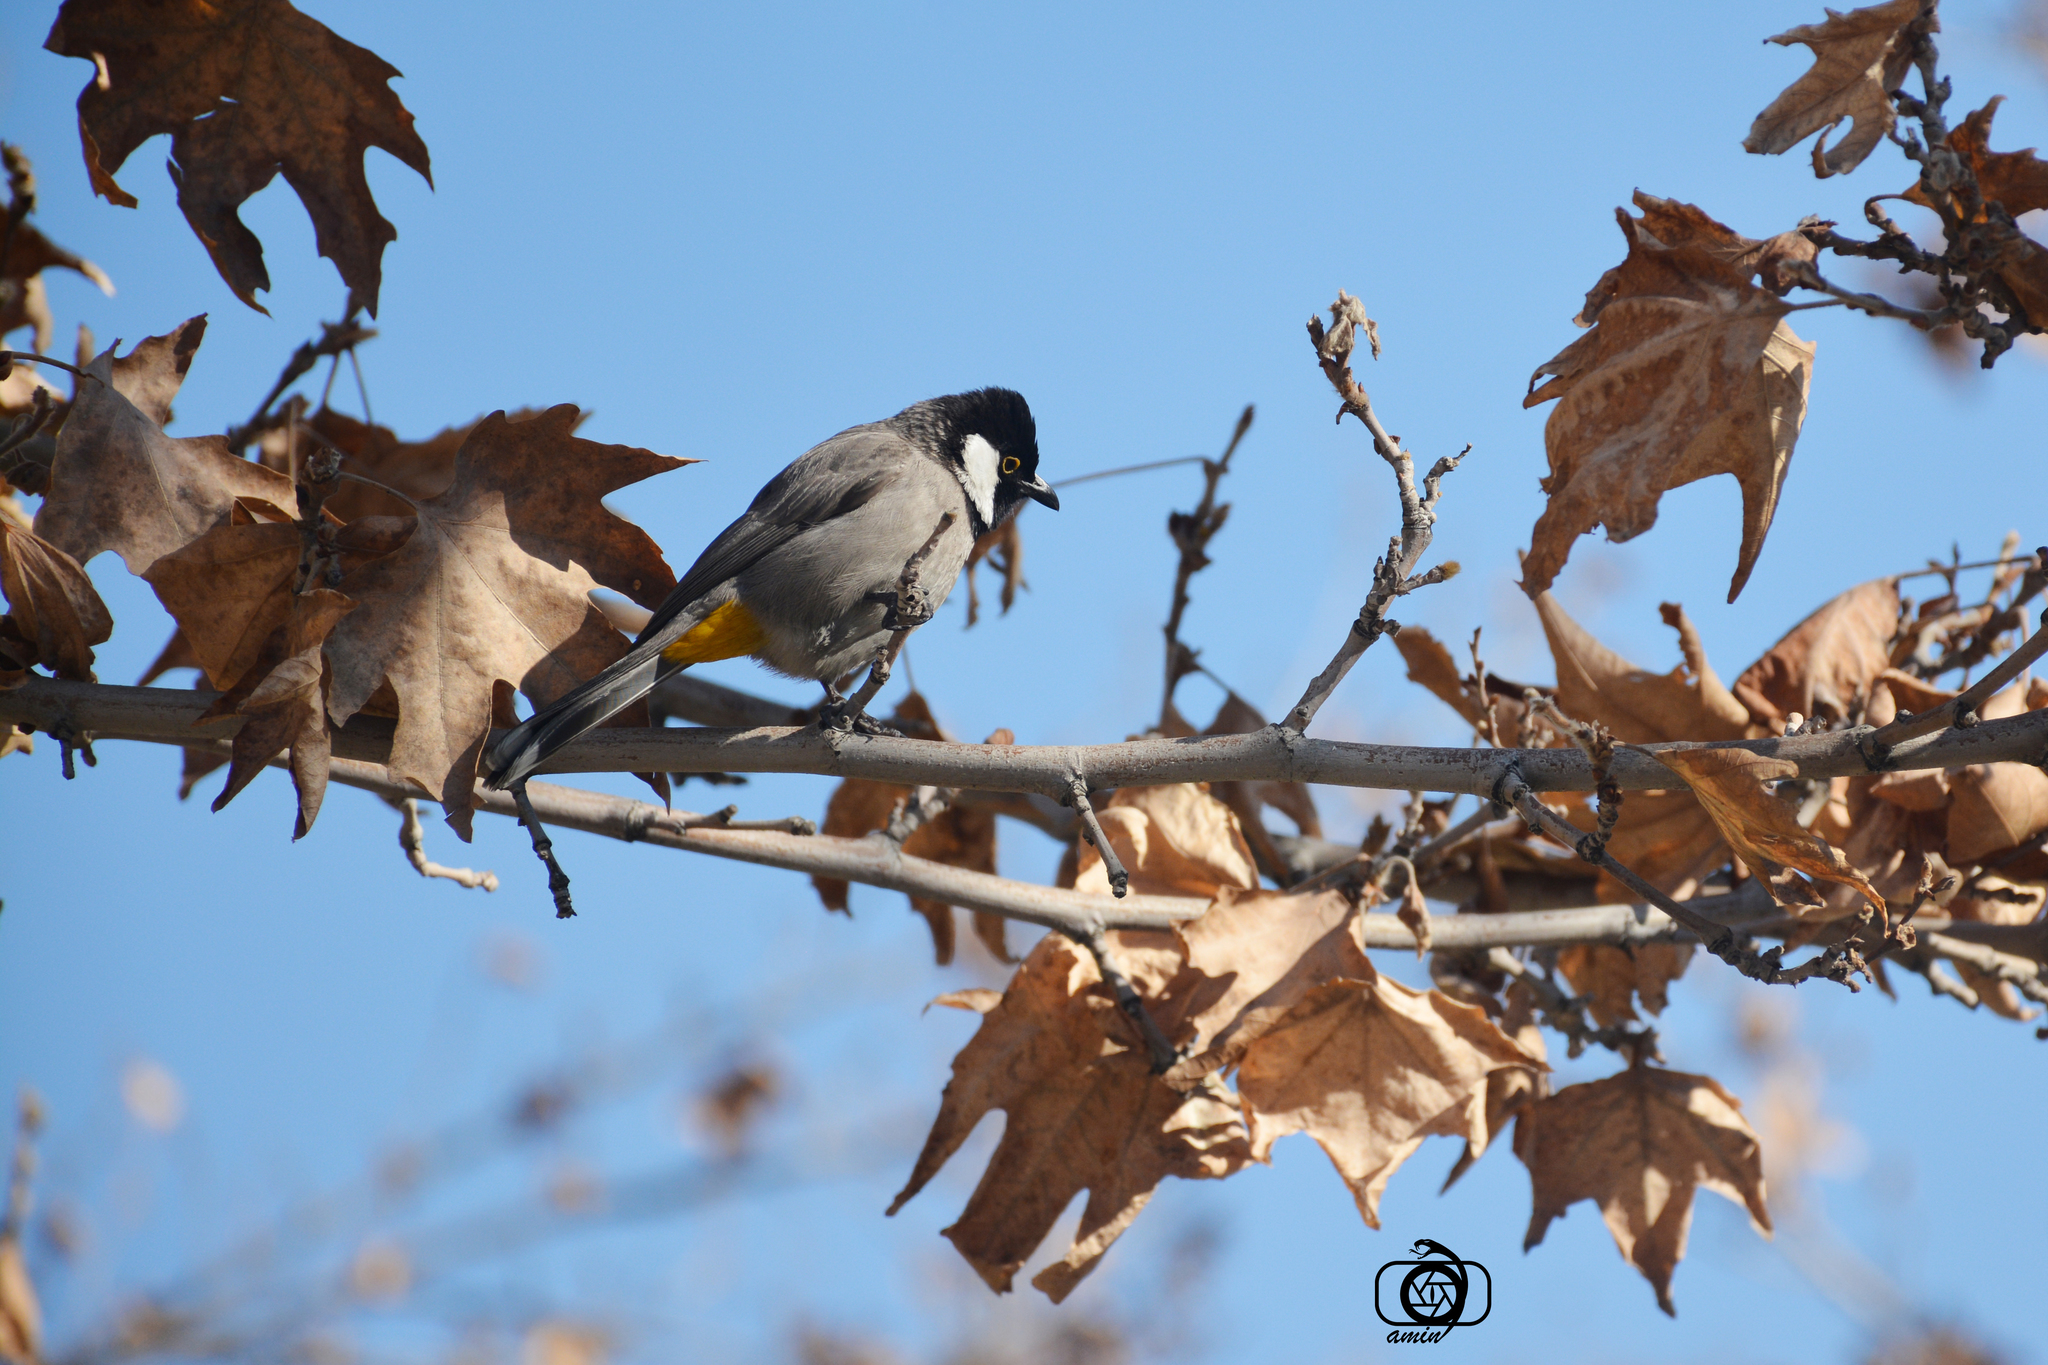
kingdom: Animalia
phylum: Chordata
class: Aves
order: Passeriformes
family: Pycnonotidae
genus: Pycnonotus
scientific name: Pycnonotus leucotis
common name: White-eared bulbul
